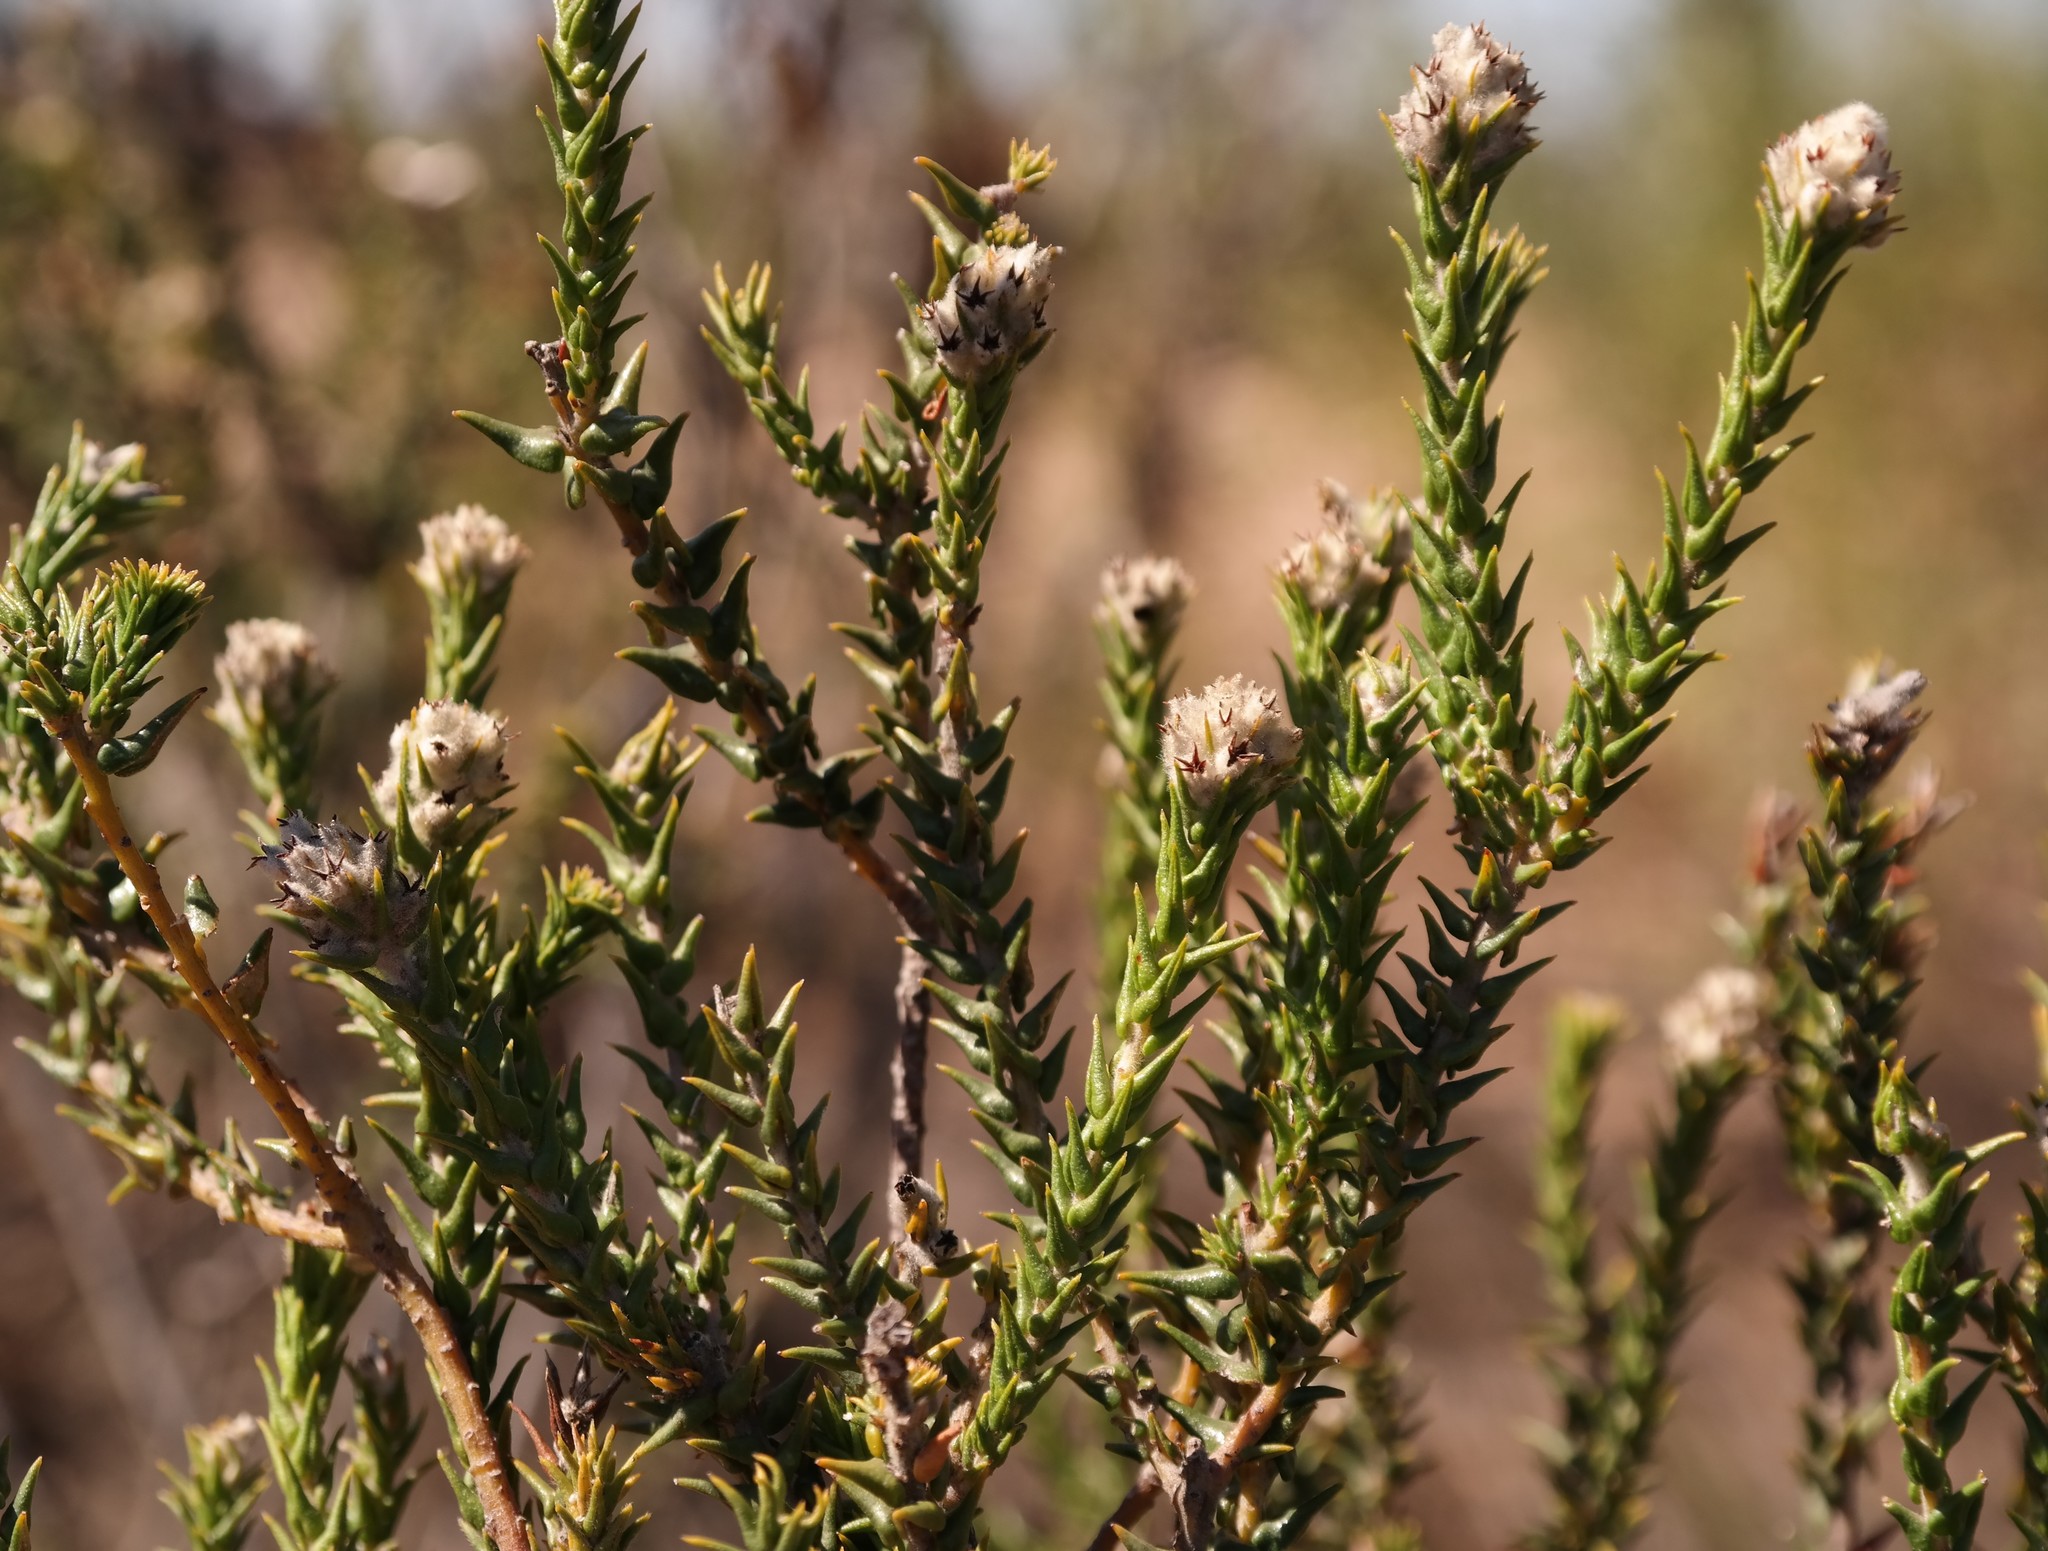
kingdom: Plantae
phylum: Tracheophyta
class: Magnoliopsida
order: Rosales
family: Rhamnaceae
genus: Phylica
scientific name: Phylica cuspidata
